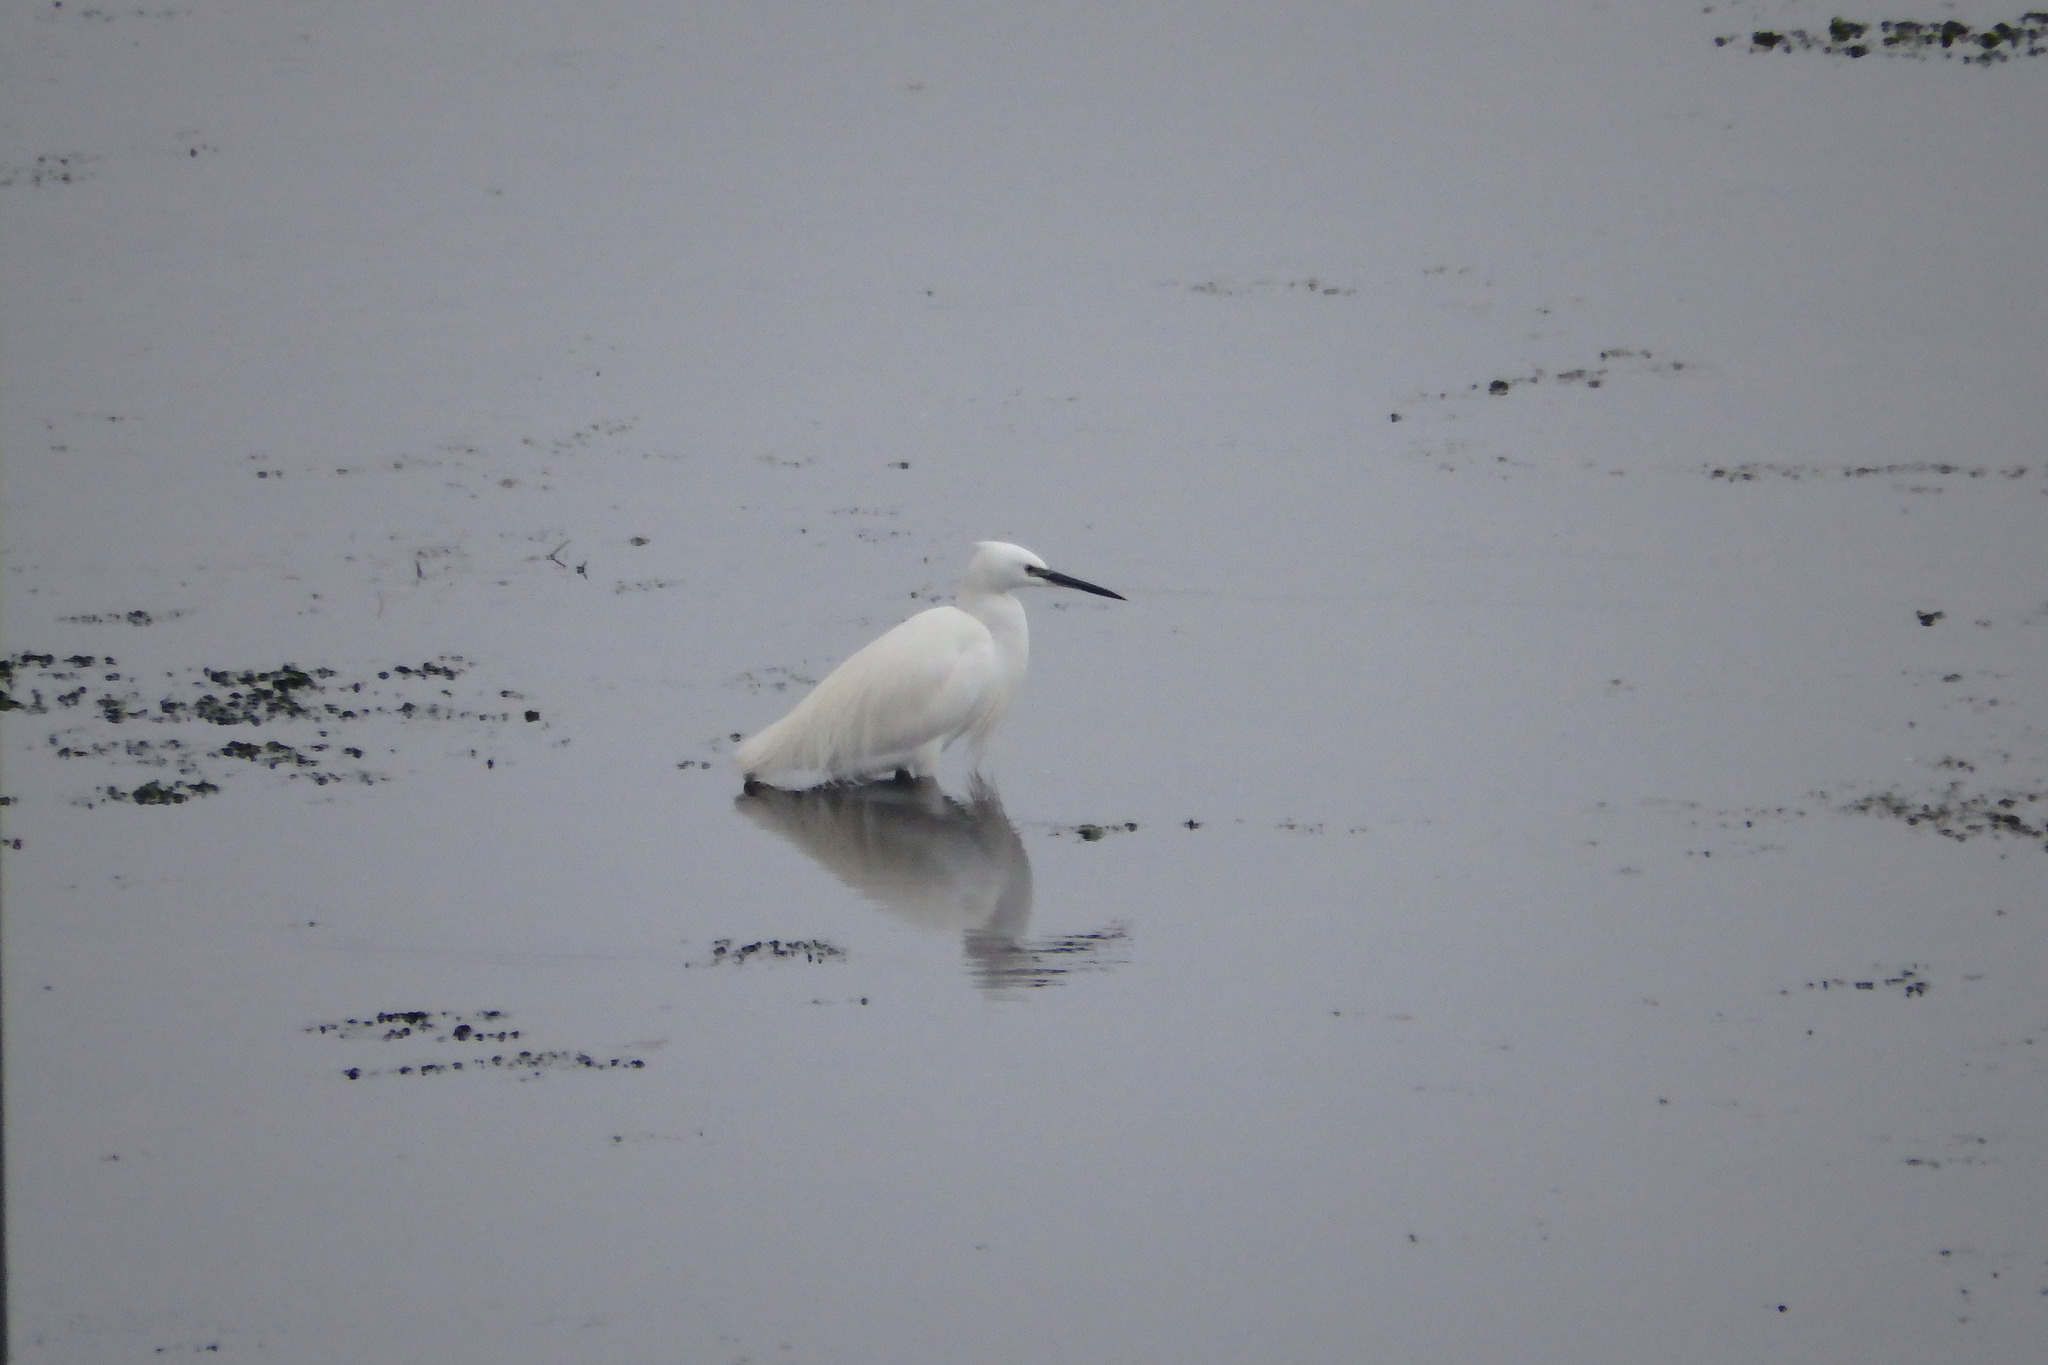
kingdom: Animalia
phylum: Chordata
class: Aves
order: Pelecaniformes
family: Ardeidae
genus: Egretta
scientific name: Egretta garzetta
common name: Little egret
